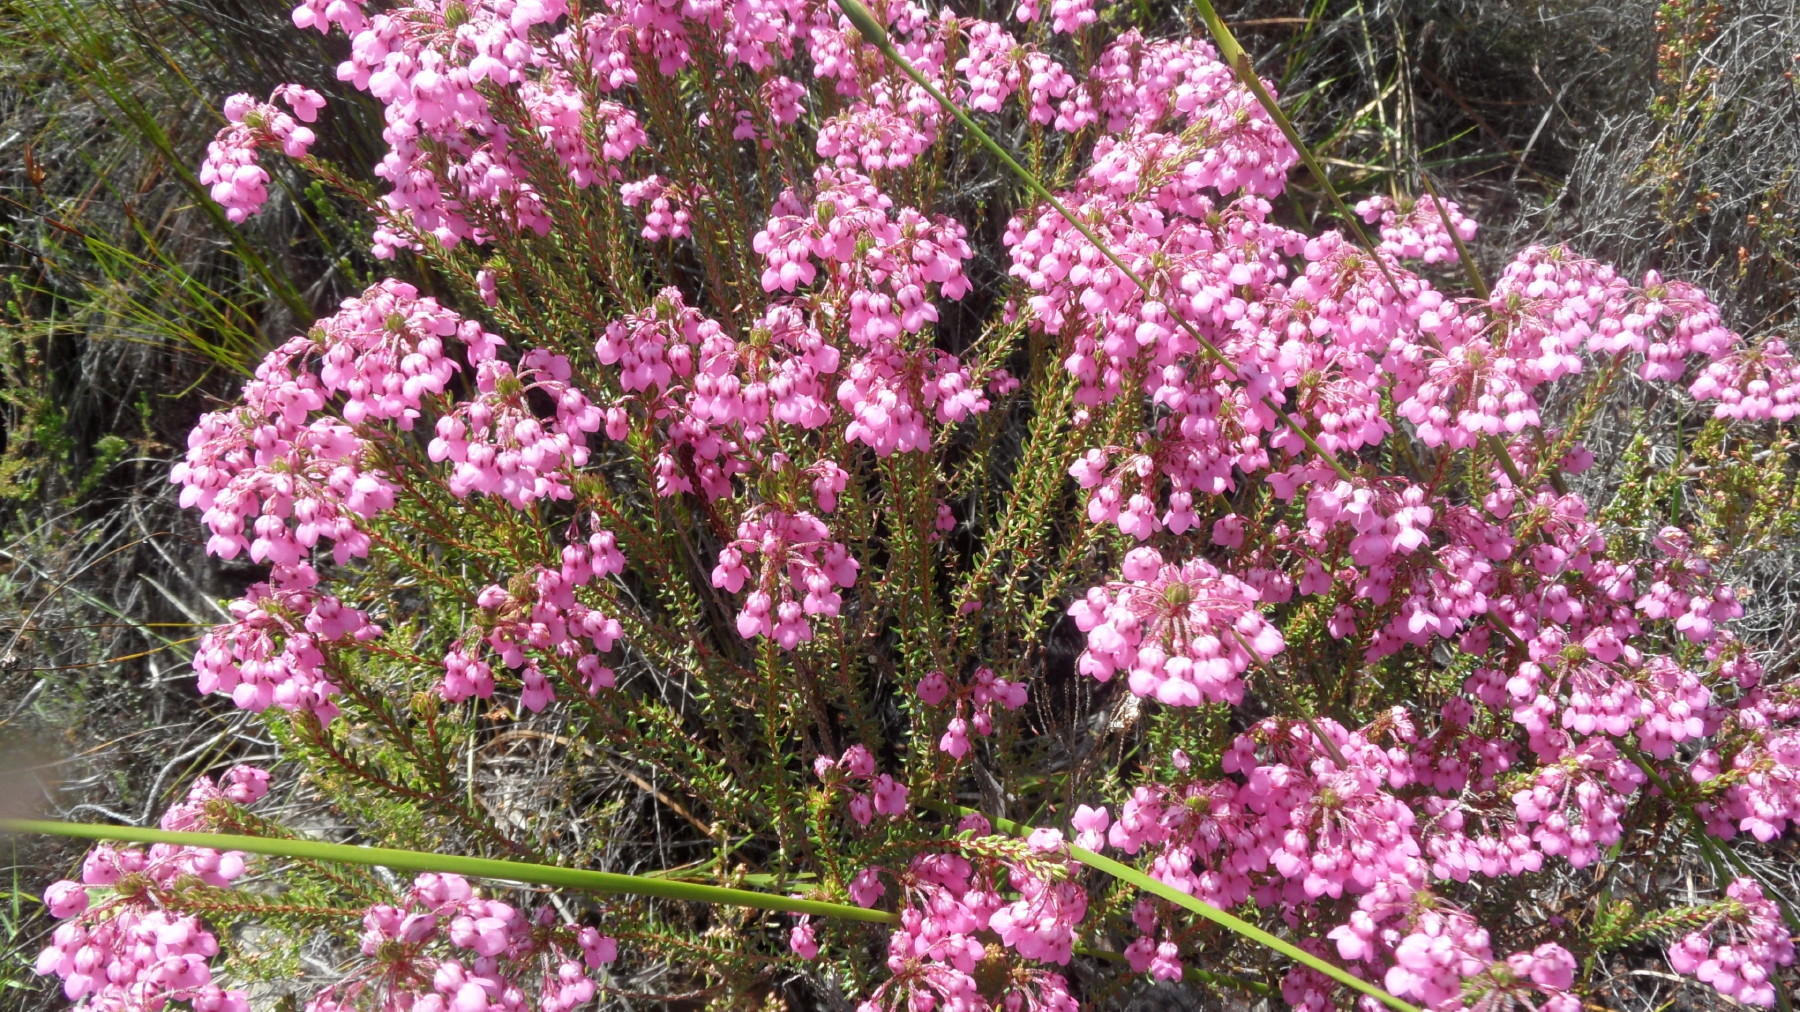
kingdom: Plantae
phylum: Tracheophyta
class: Magnoliopsida
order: Ericales
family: Ericaceae
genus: Erica
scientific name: Erica cubica
